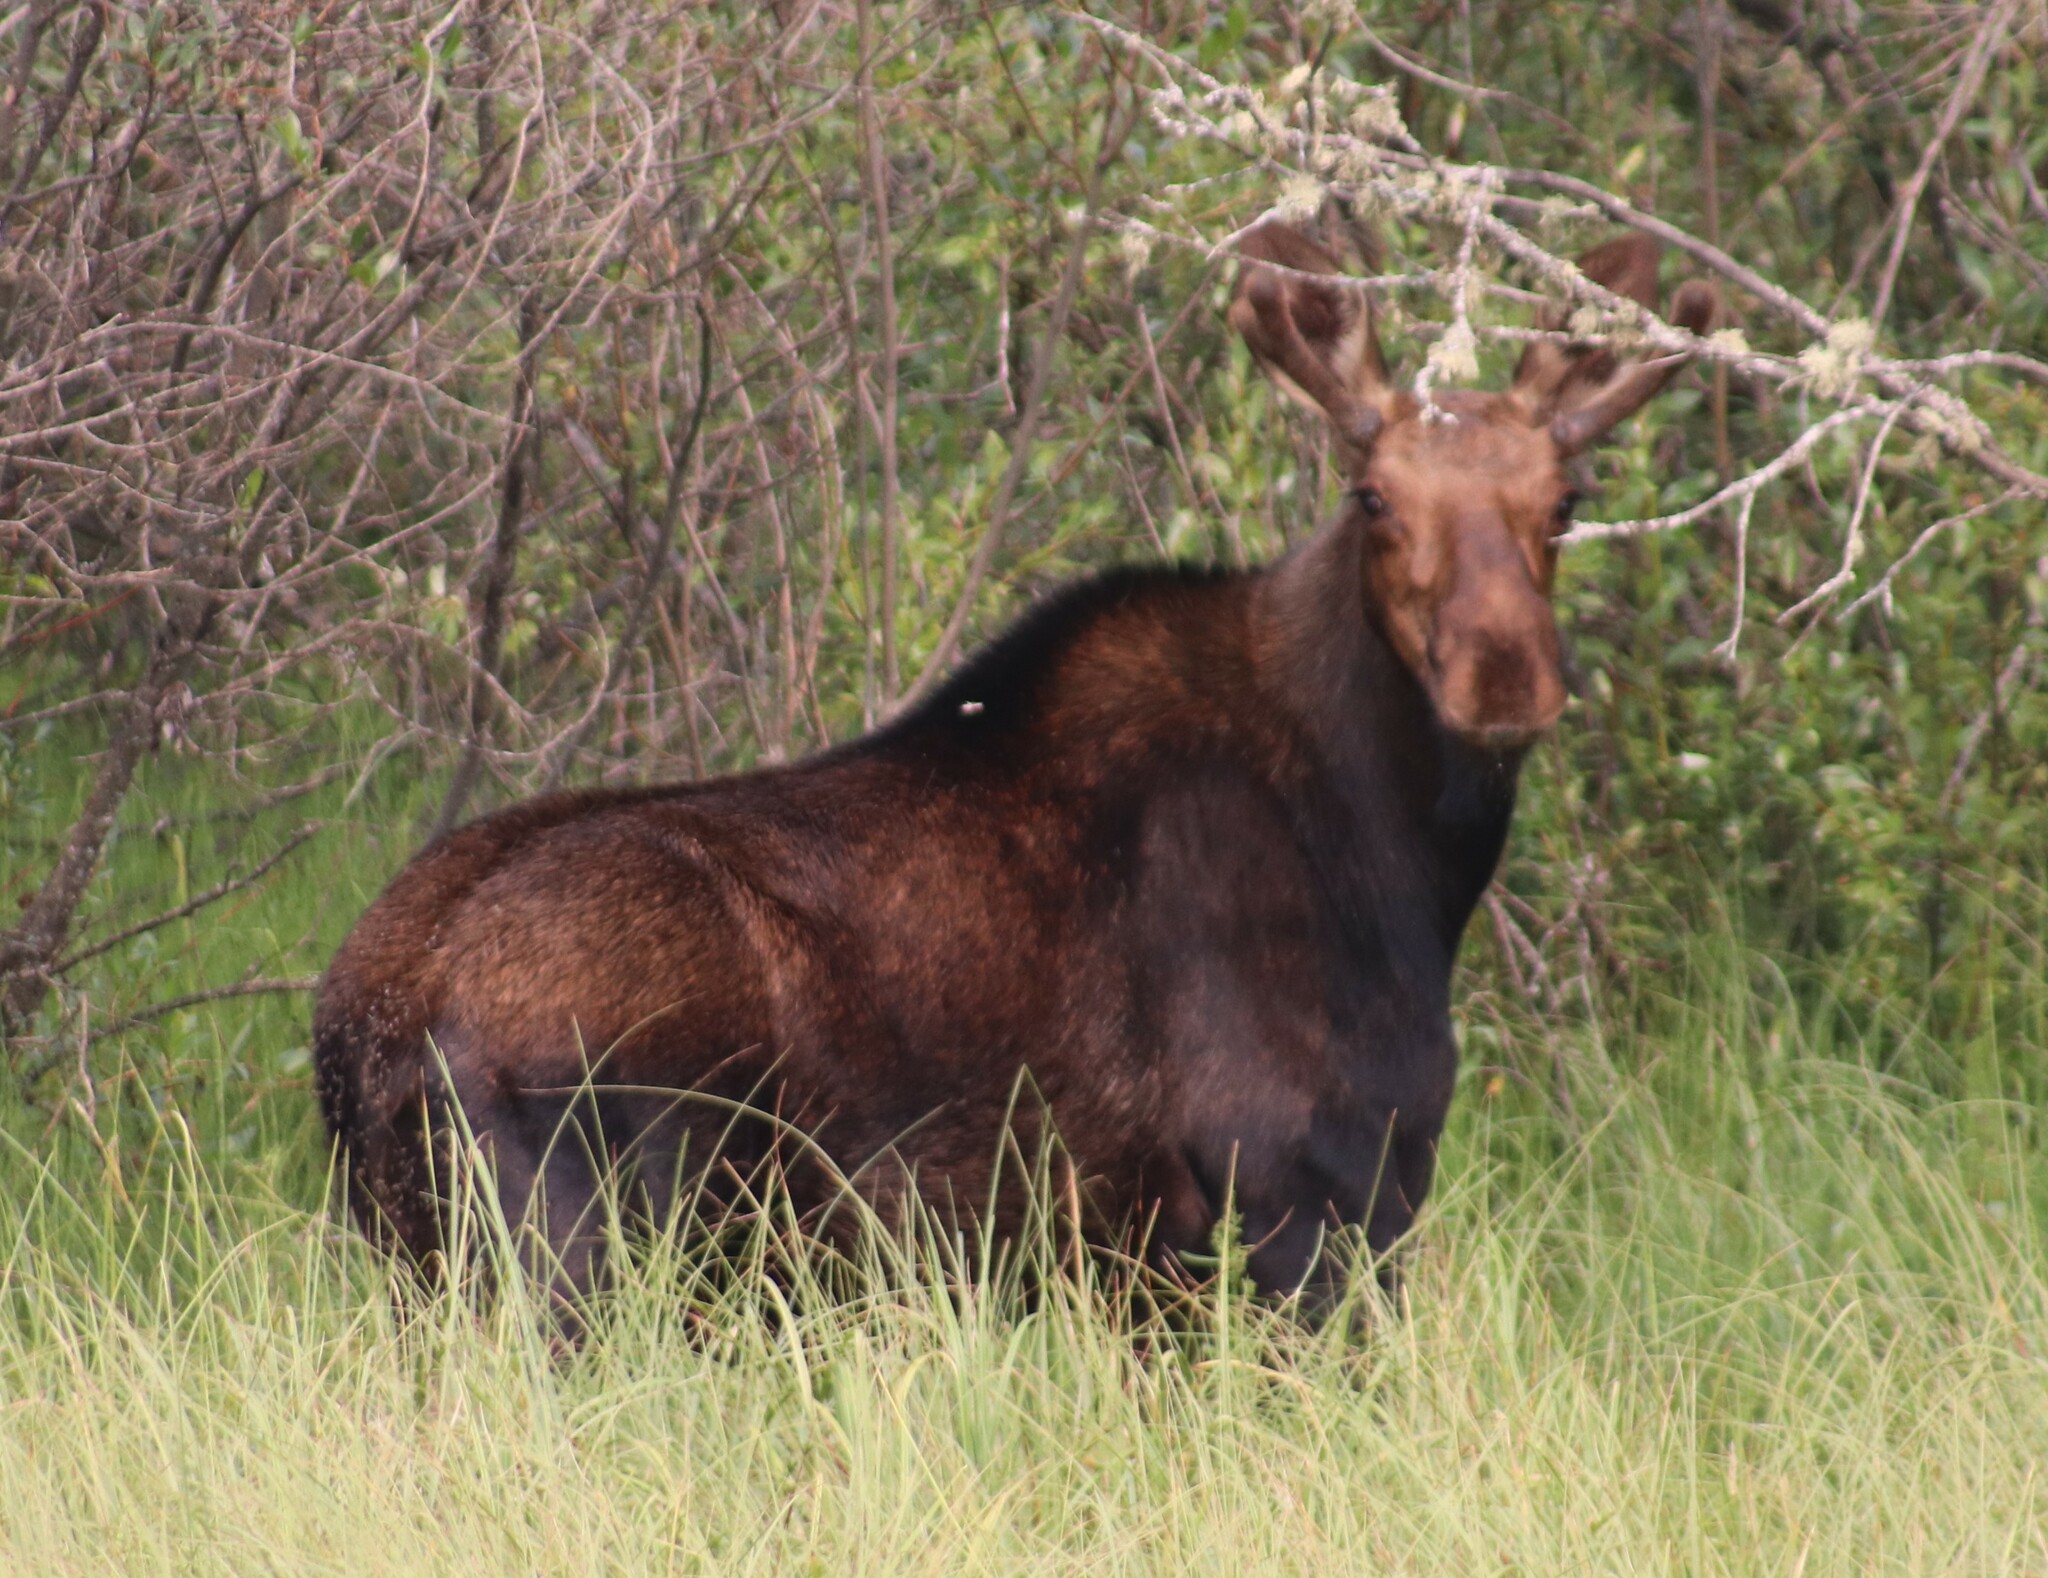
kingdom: Animalia
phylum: Chordata
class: Mammalia
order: Artiodactyla
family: Cervidae
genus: Alces
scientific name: Alces alces
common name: Moose
